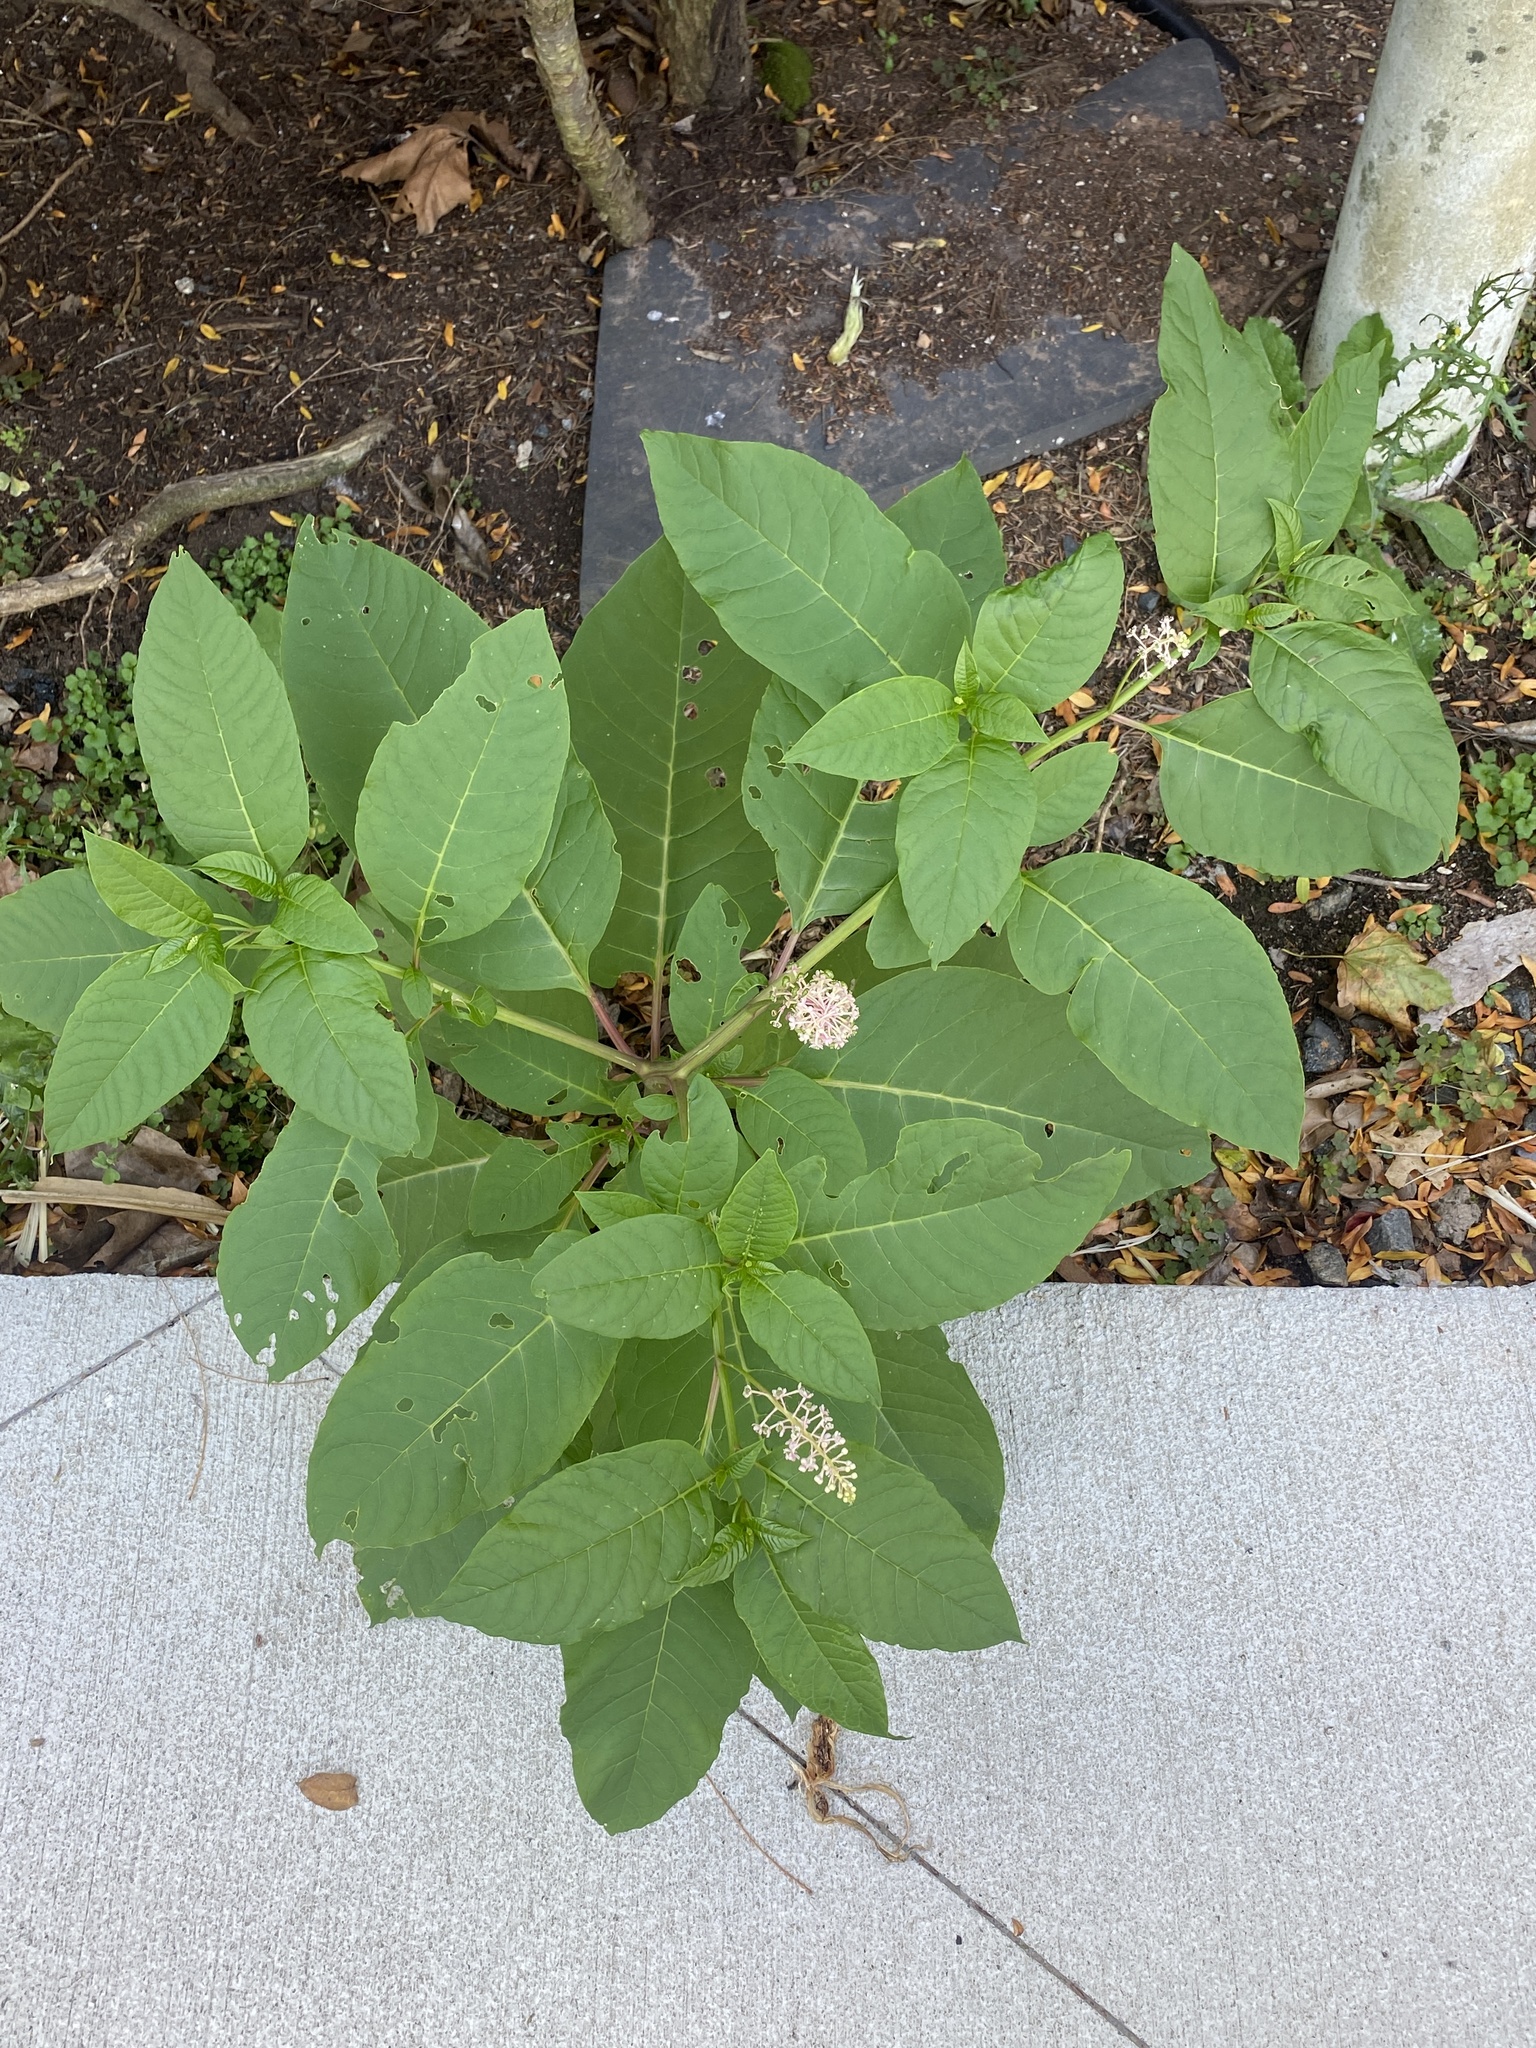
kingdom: Plantae
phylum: Tracheophyta
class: Magnoliopsida
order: Caryophyllales
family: Phytolaccaceae
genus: Phytolacca
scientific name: Phytolacca americana
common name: American pokeweed
